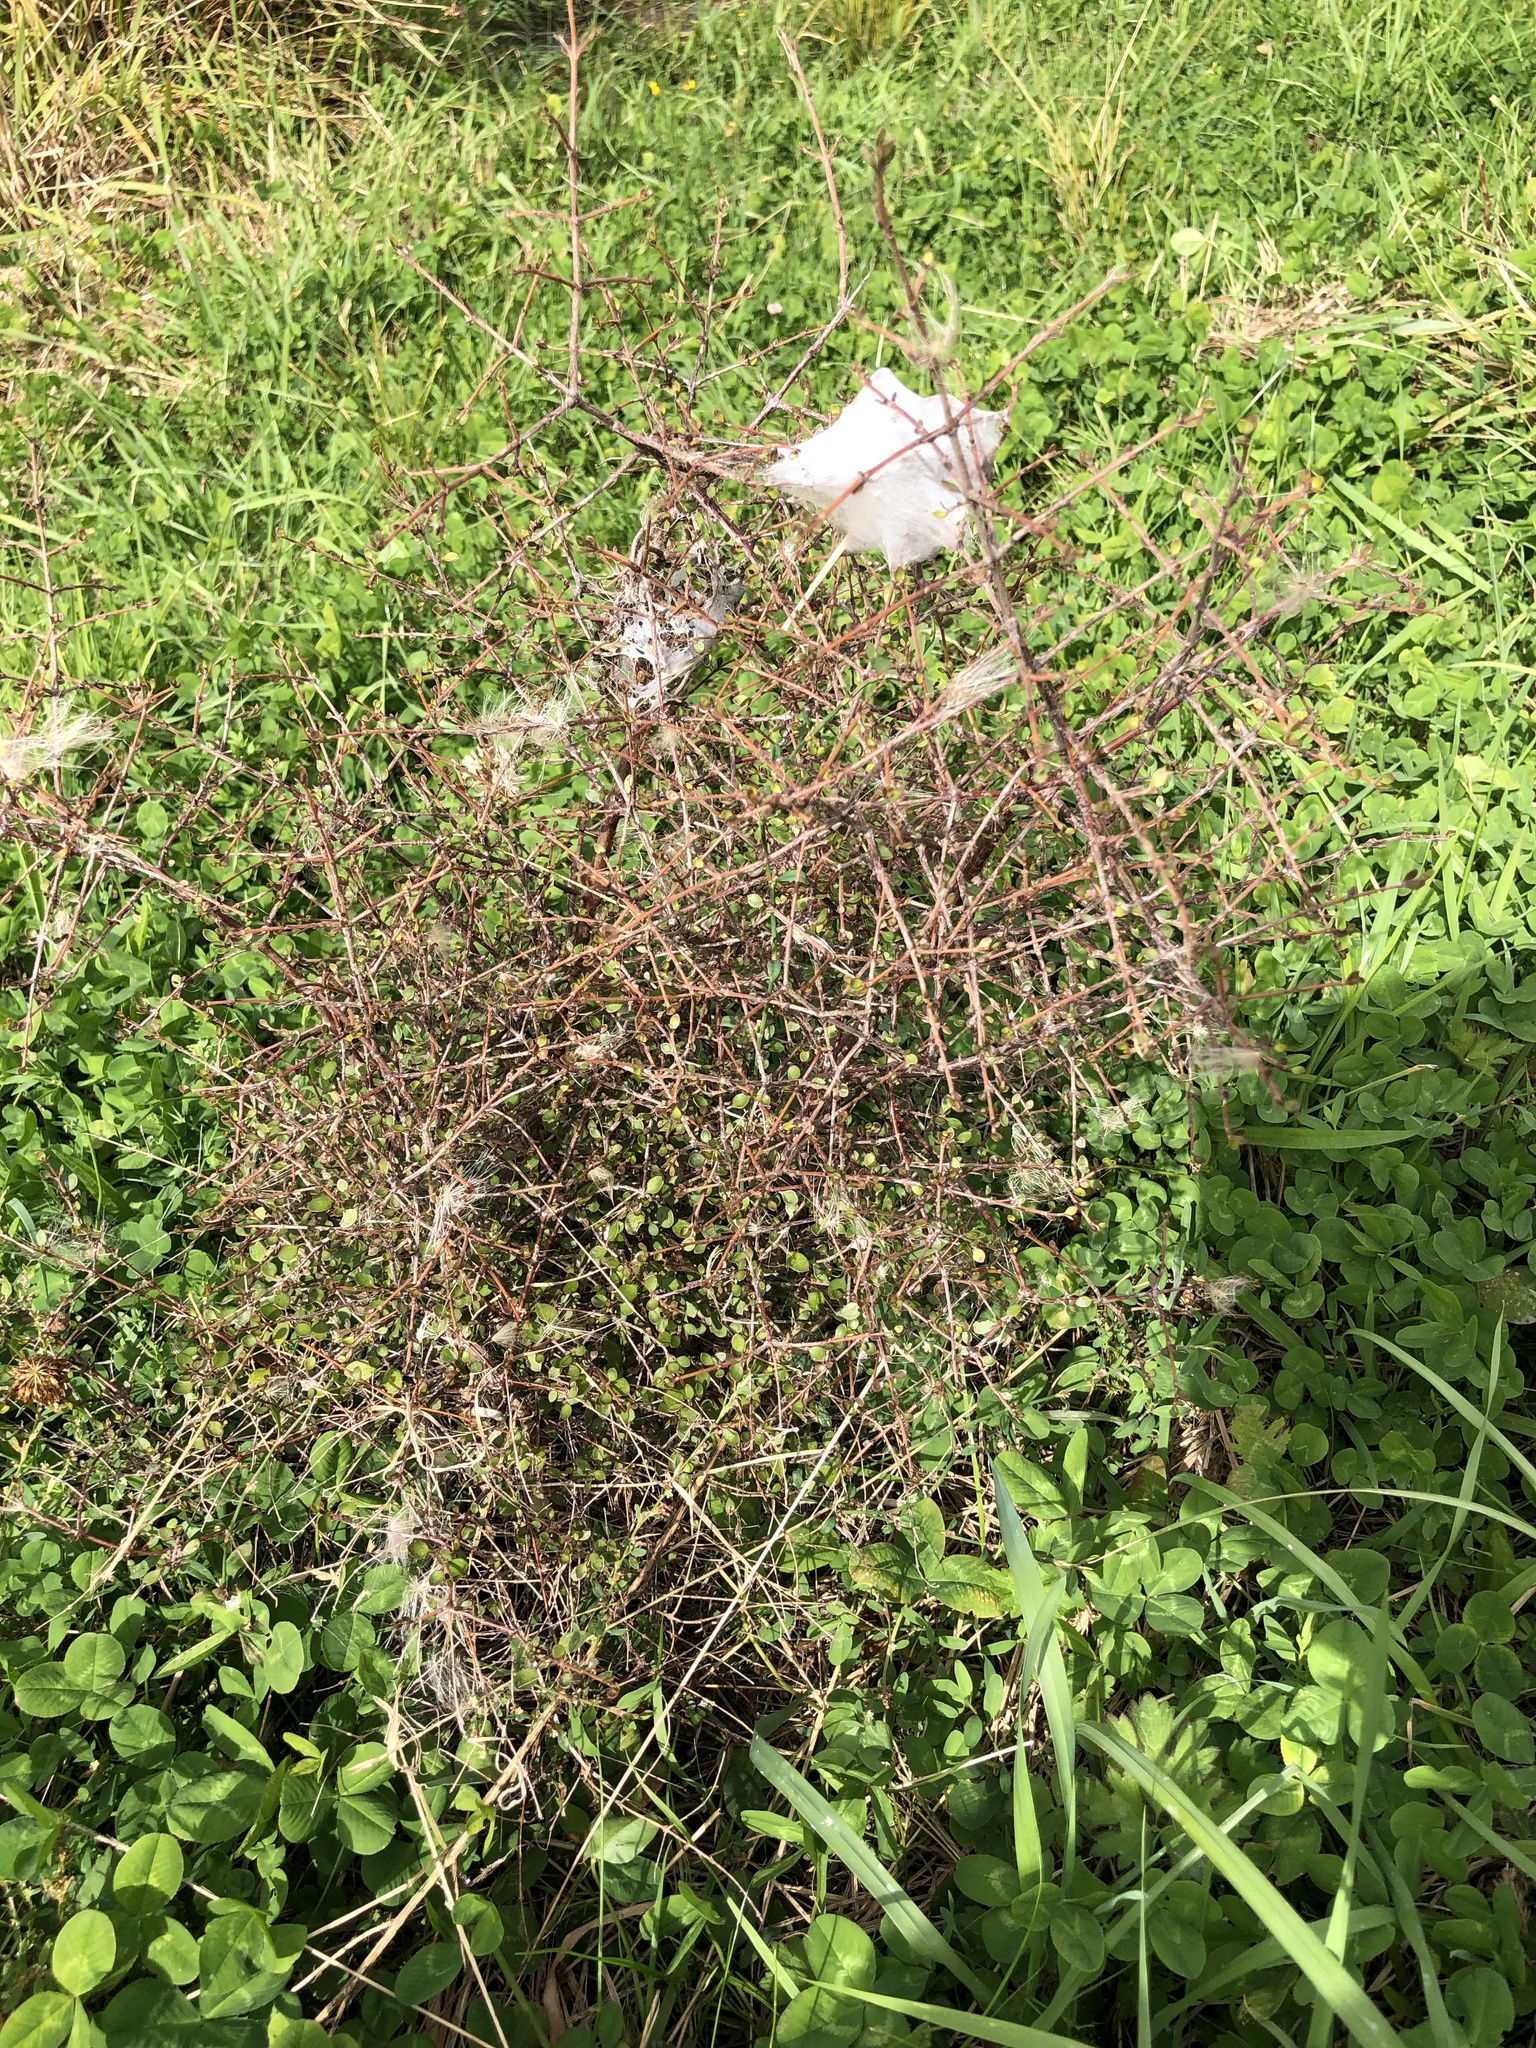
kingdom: Animalia
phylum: Arthropoda
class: Arachnida
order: Araneae
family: Pisauridae
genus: Dolomedes
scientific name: Dolomedes minor
